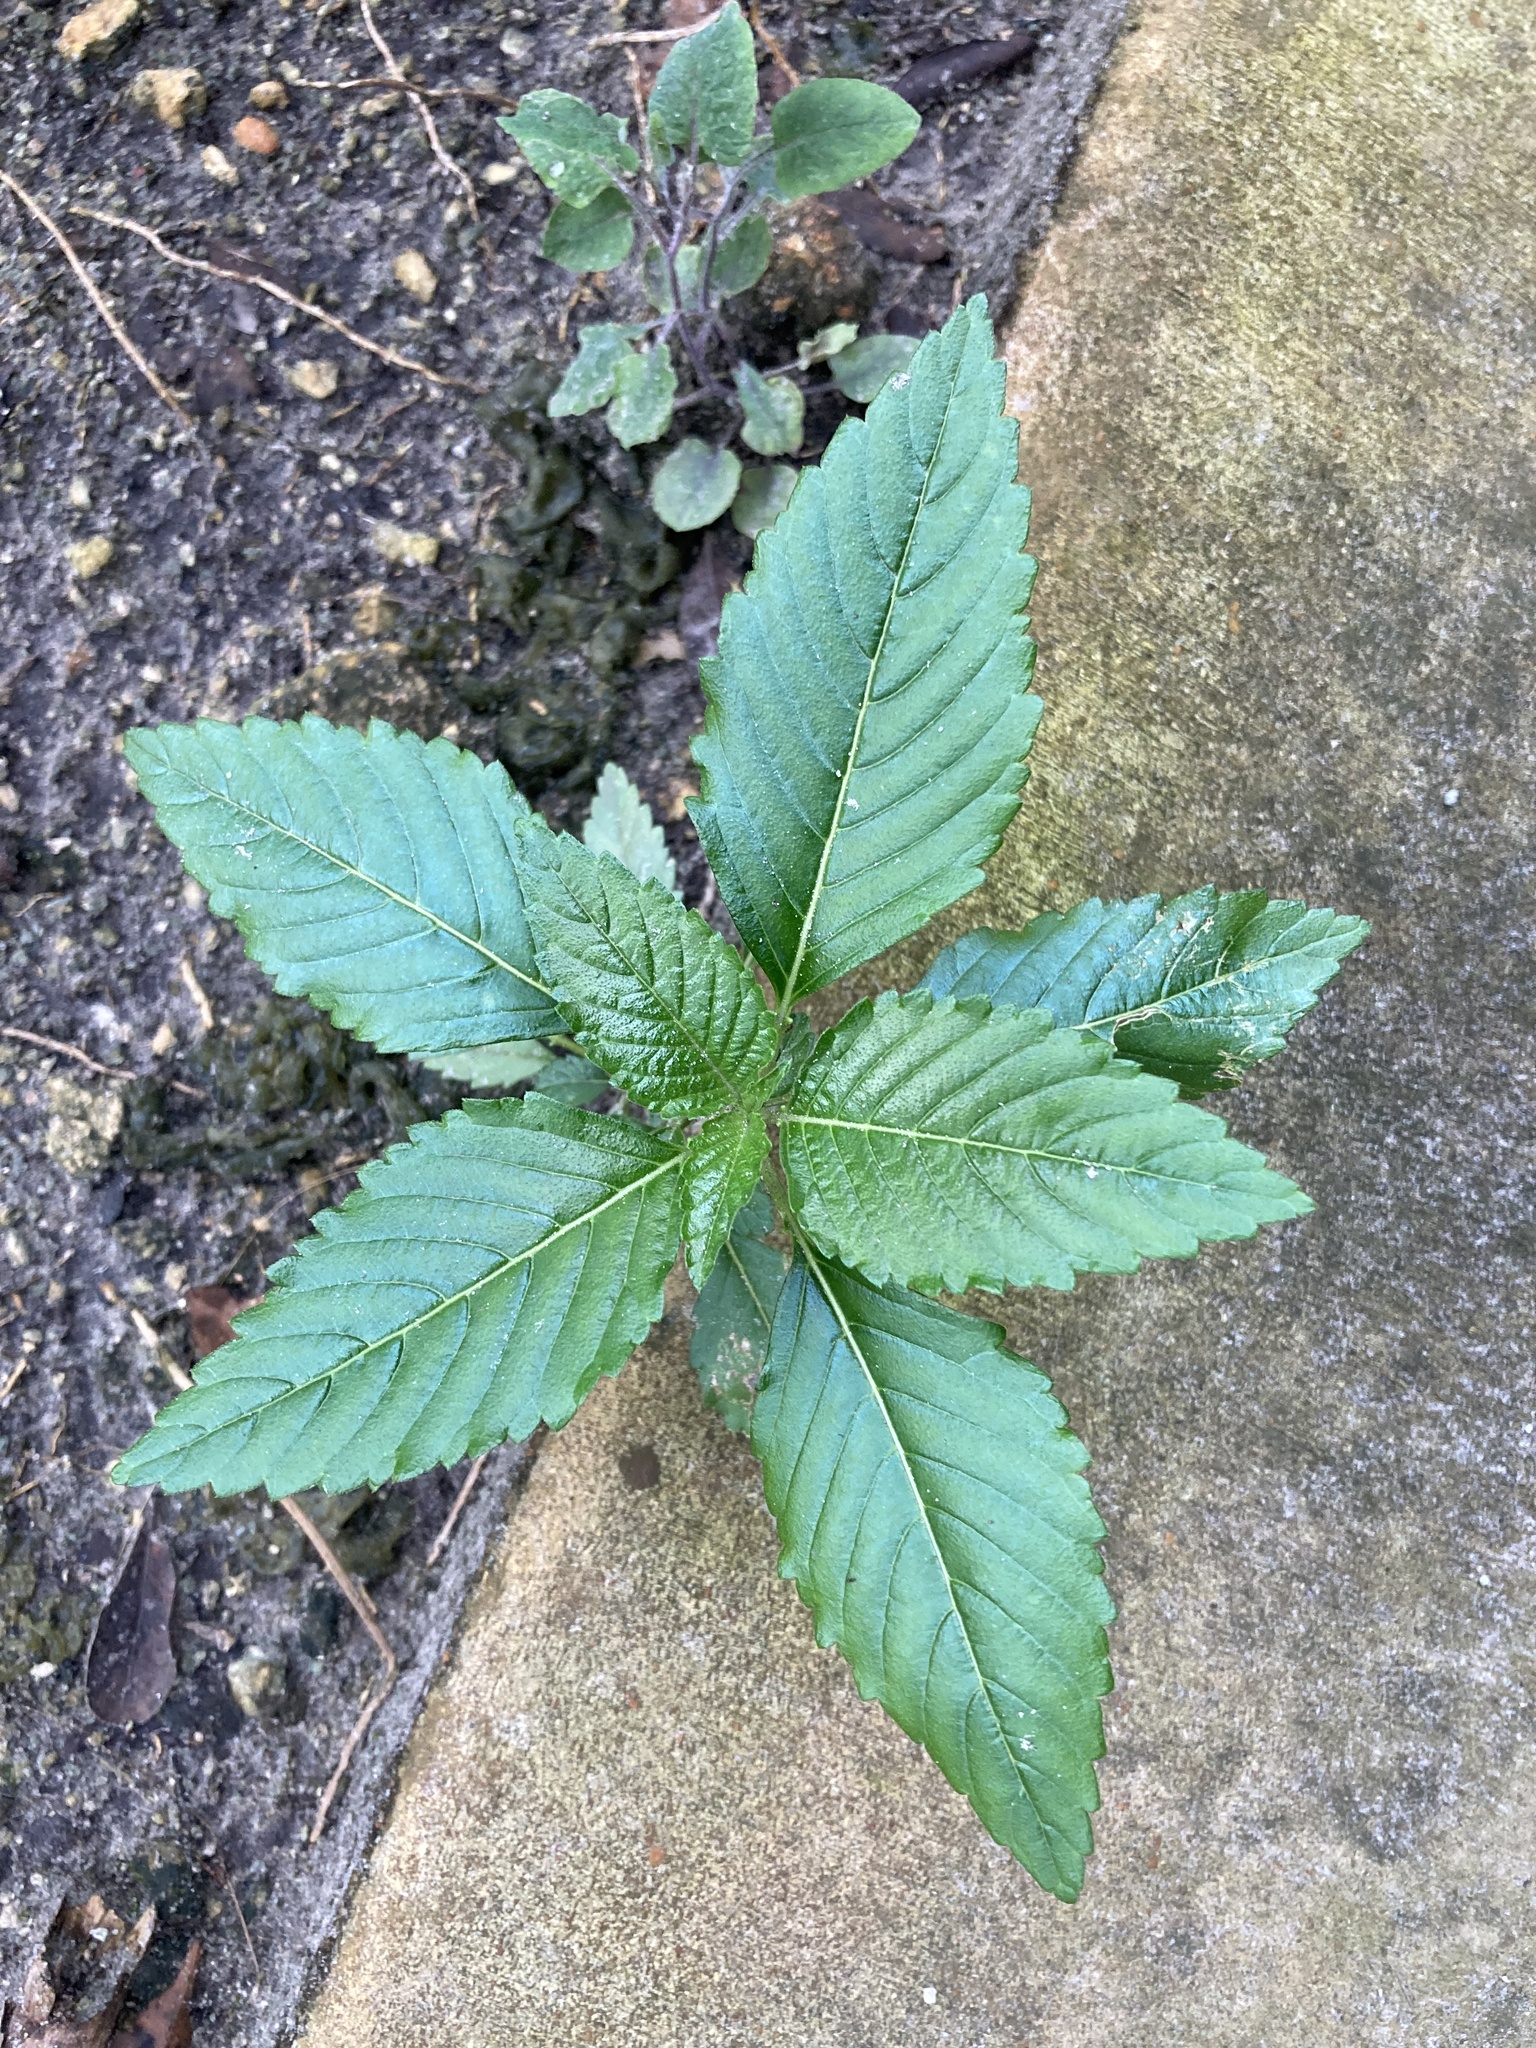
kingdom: Plantae
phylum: Tracheophyta
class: Magnoliopsida
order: Malpighiales
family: Turneraceae
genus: Turnera
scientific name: Turnera ulmifolia
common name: Ramgoat dashalong
